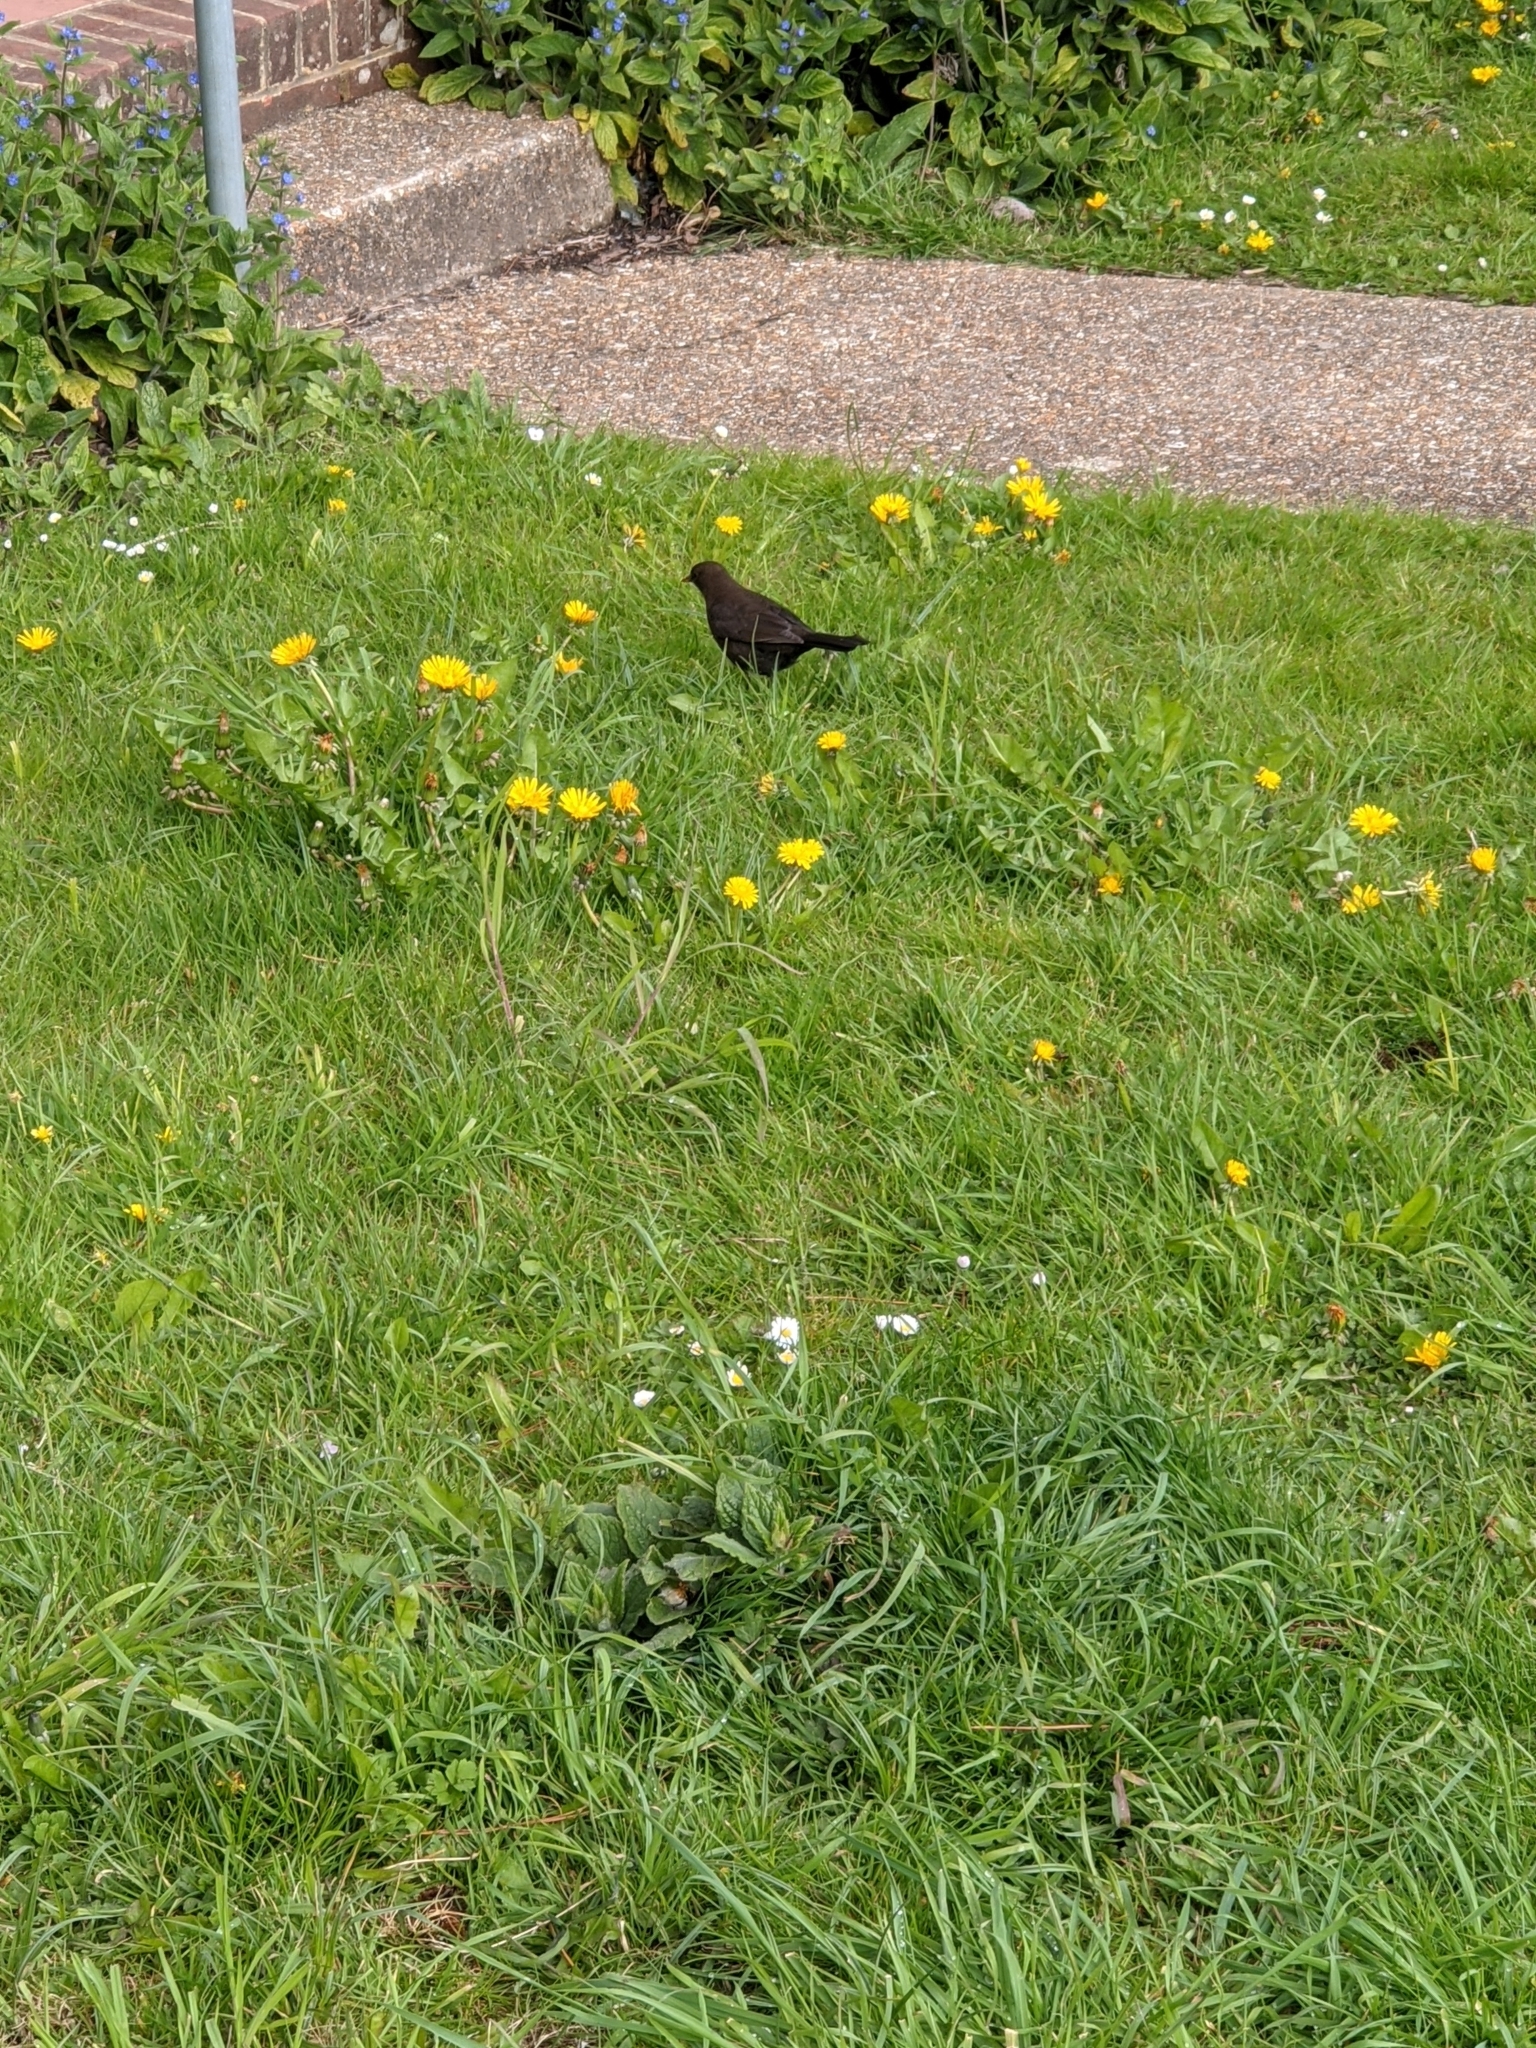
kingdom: Animalia
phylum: Chordata
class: Aves
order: Passeriformes
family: Turdidae
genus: Turdus
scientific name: Turdus merula
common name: Common blackbird
